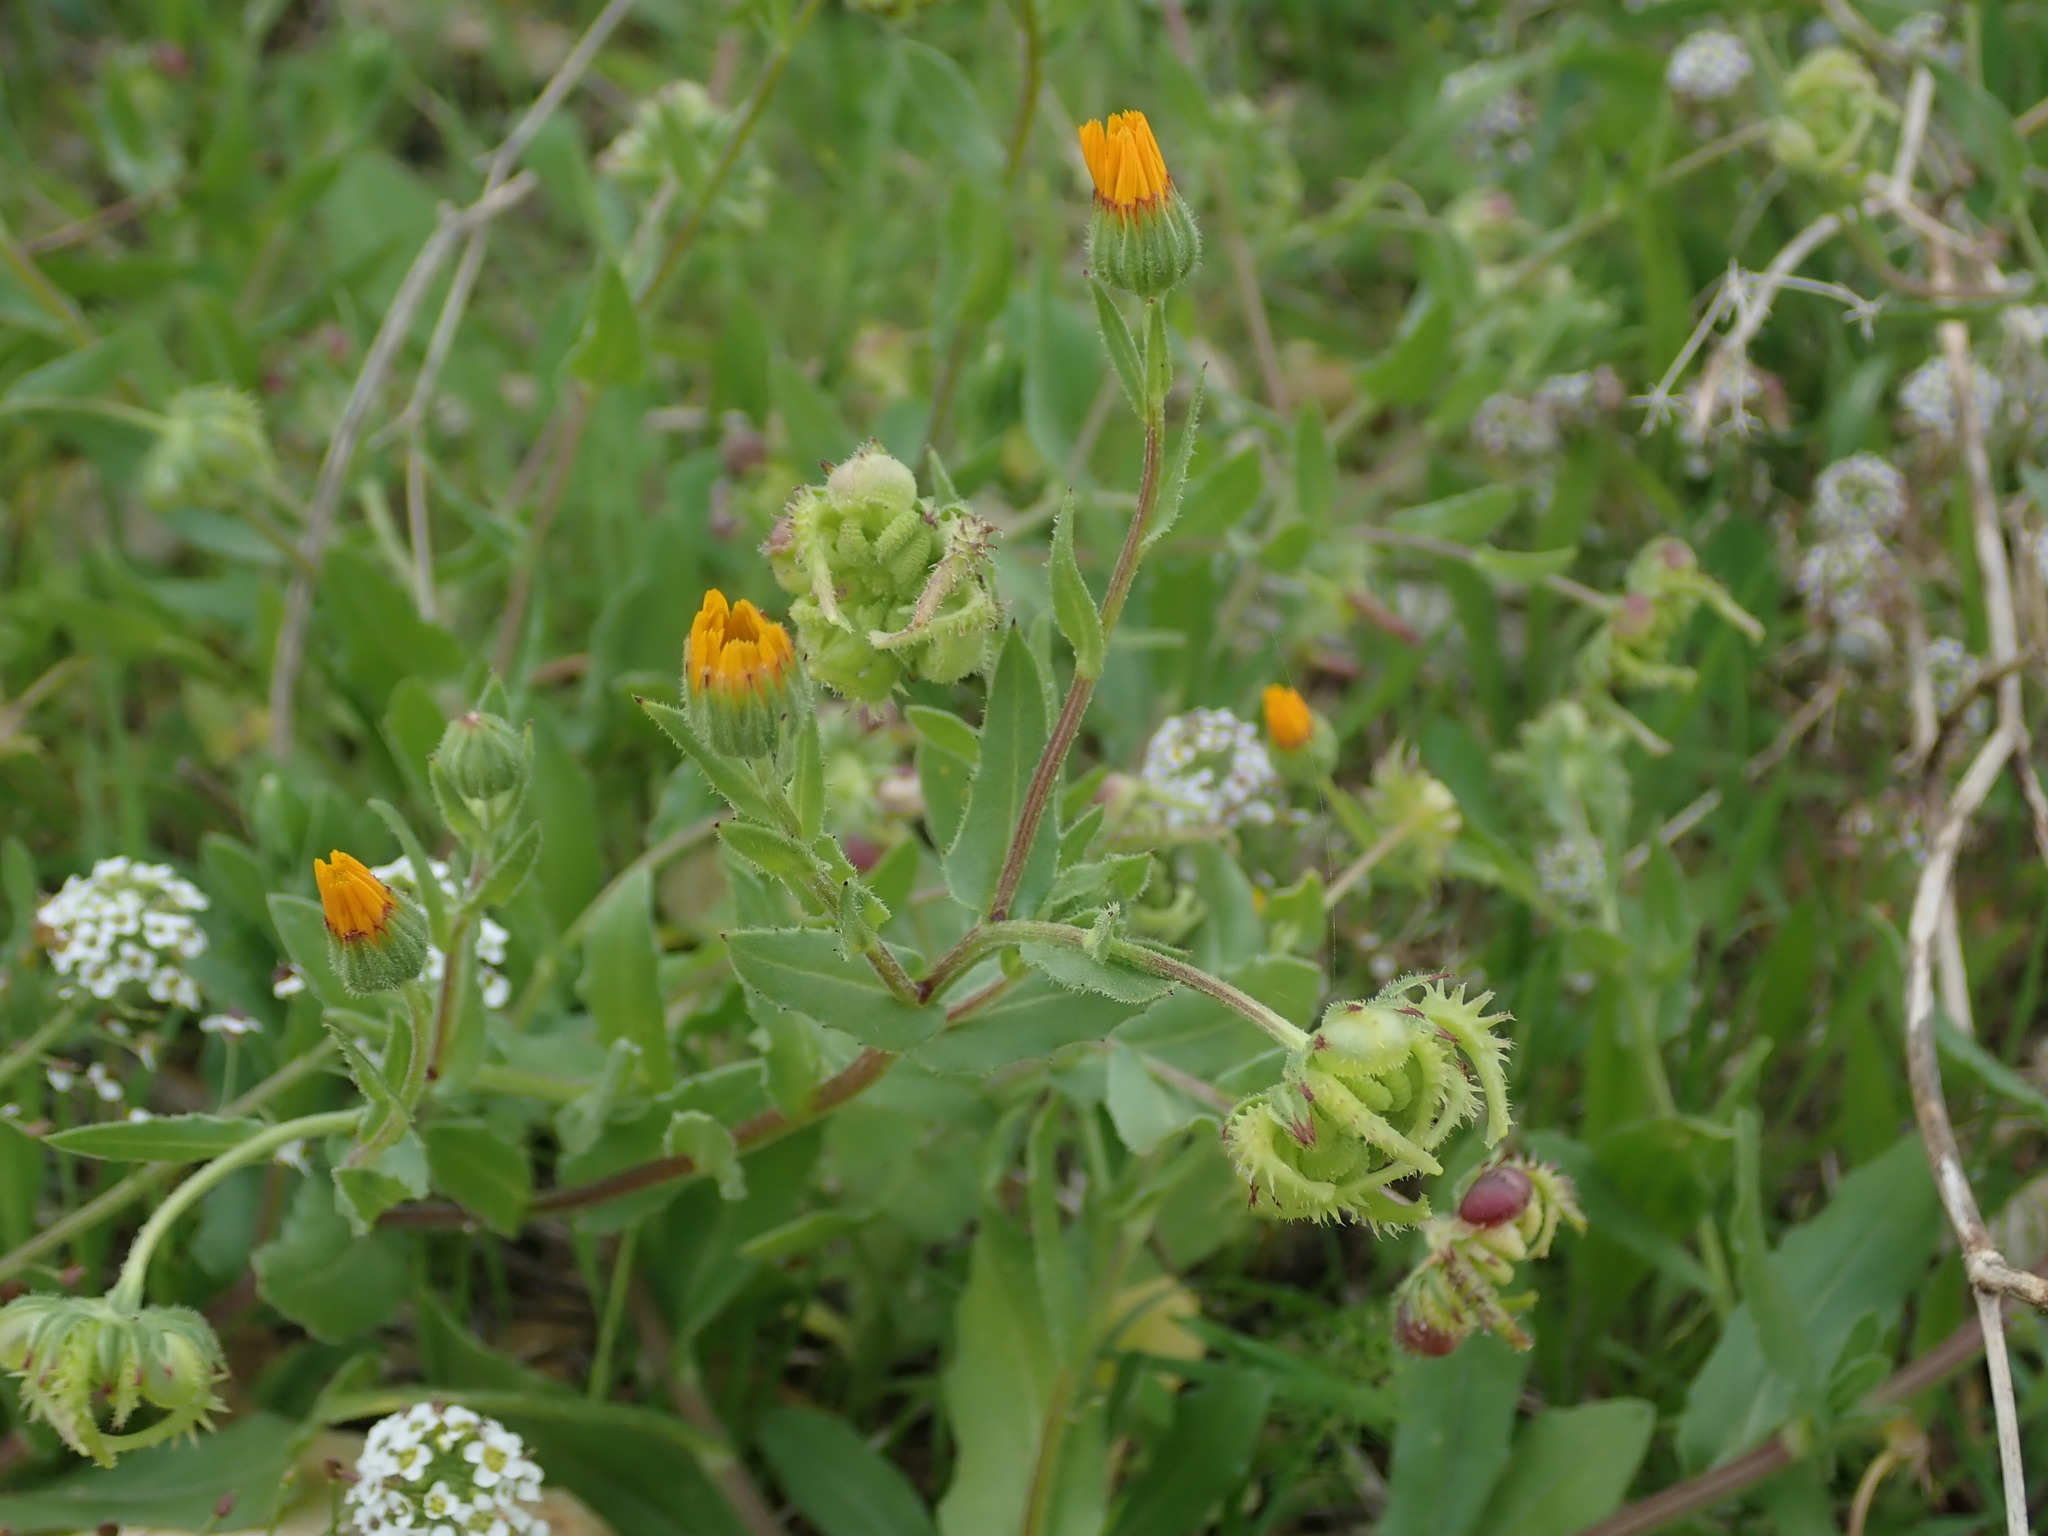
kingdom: Plantae
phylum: Tracheophyta
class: Magnoliopsida
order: Asterales
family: Asteraceae
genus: Calendula
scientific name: Calendula arvensis
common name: Field marigold
